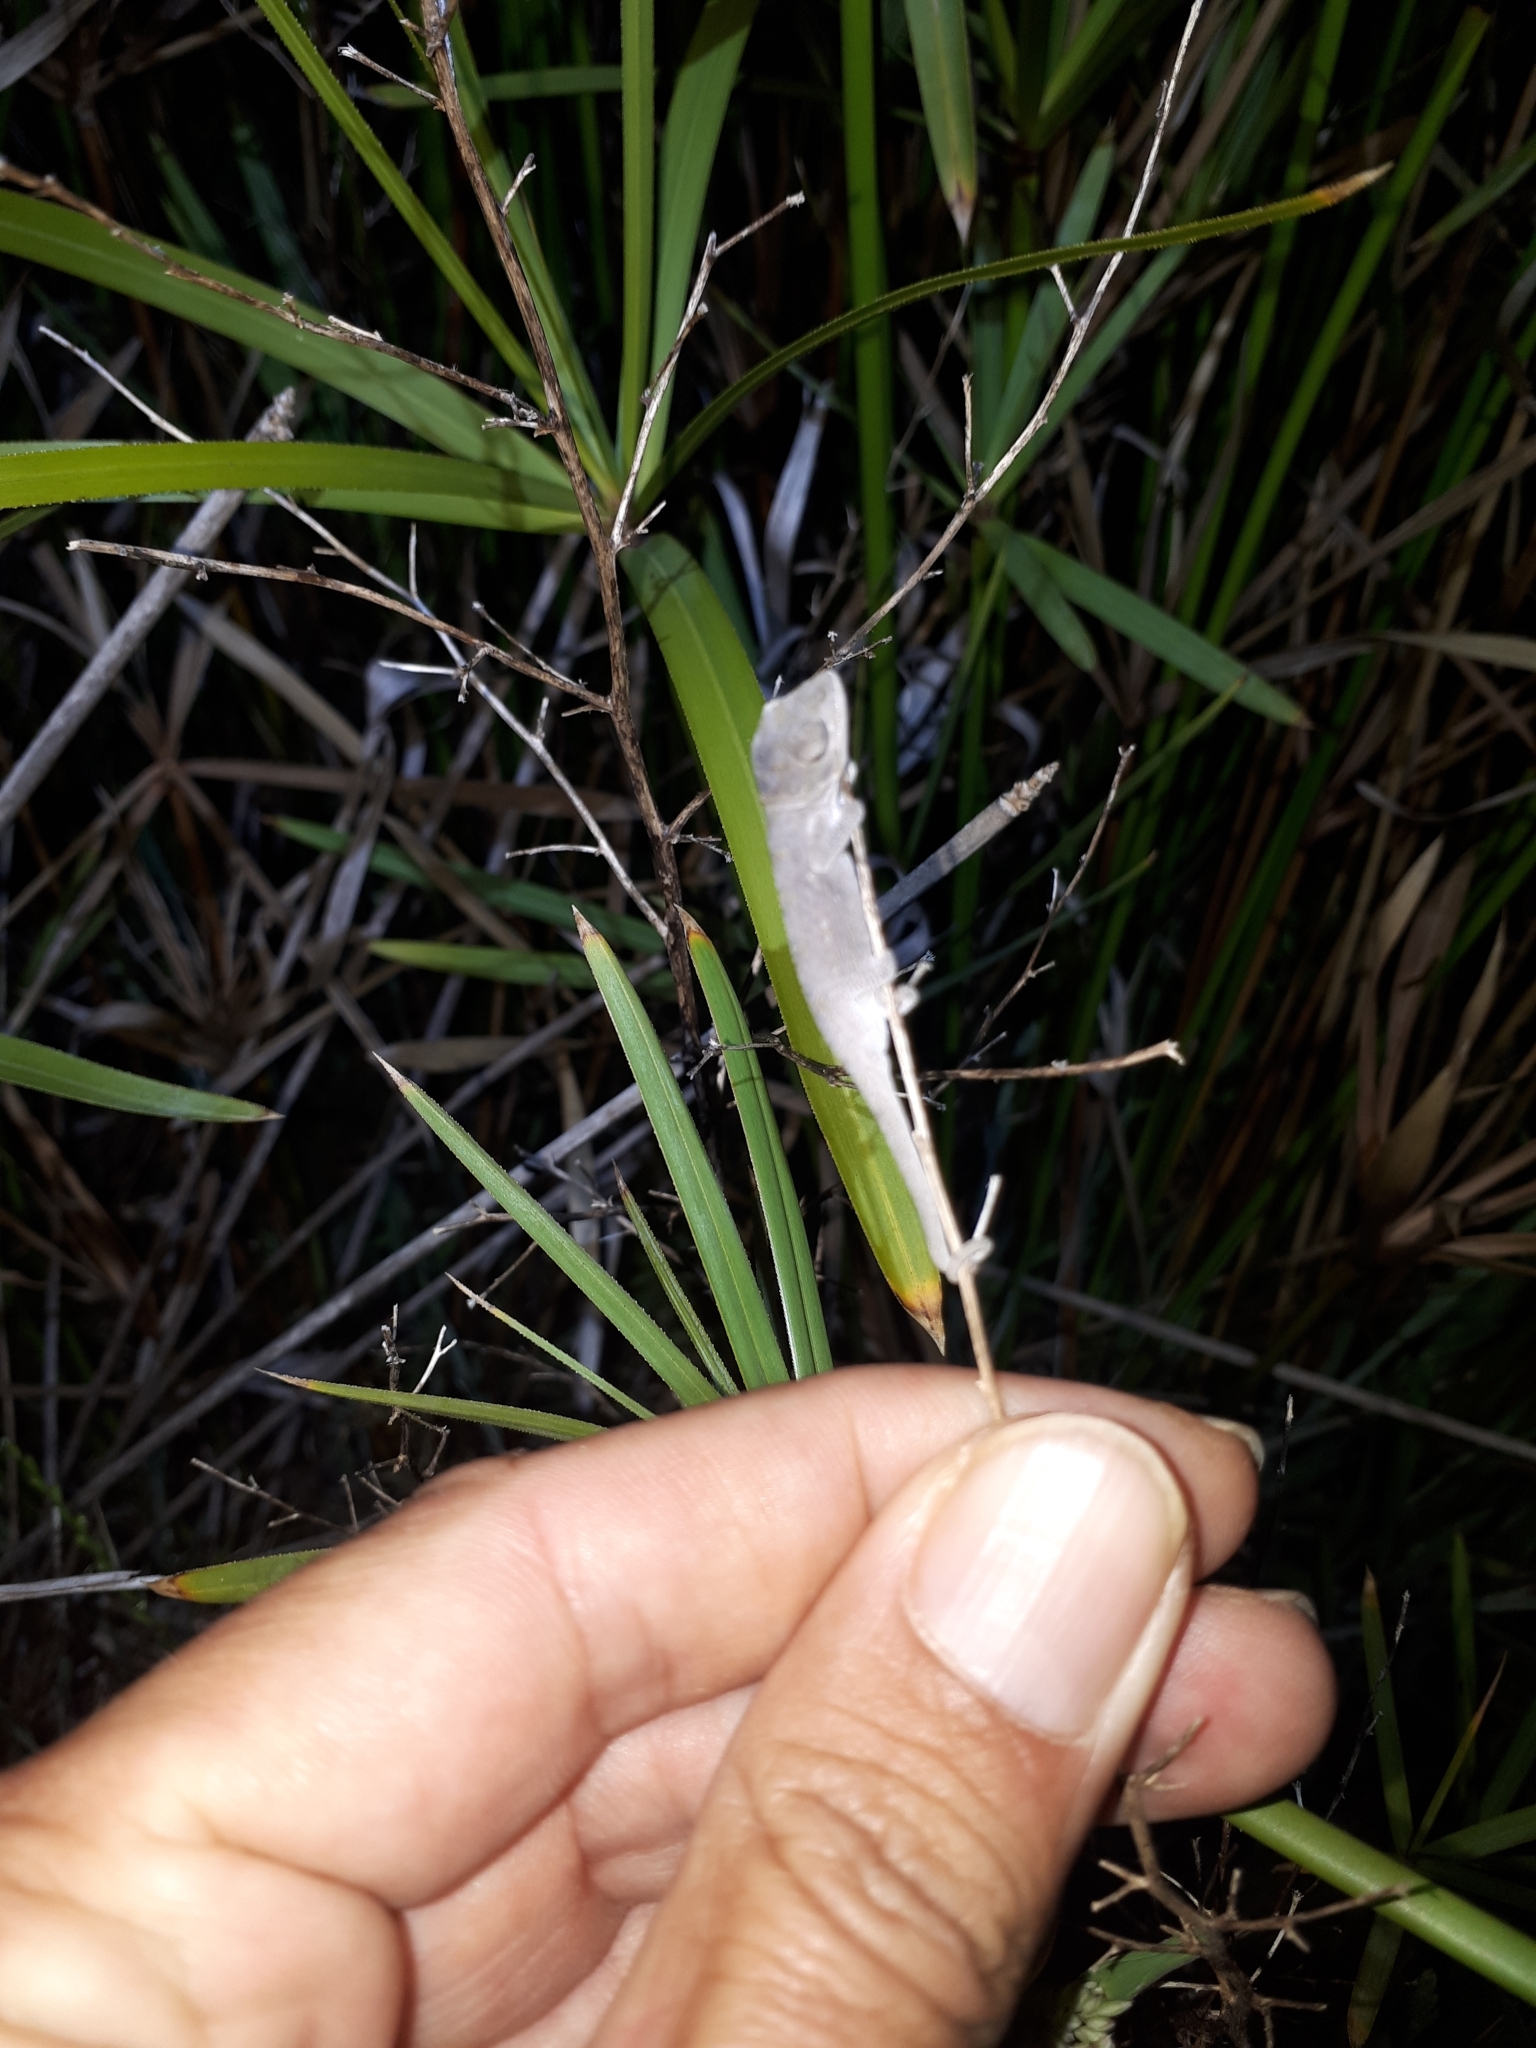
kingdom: Animalia
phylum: Chordata
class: Squamata
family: Chamaeleonidae
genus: Bradypodion
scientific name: Bradypodion pumilum
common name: Cape dwarf chameleon
